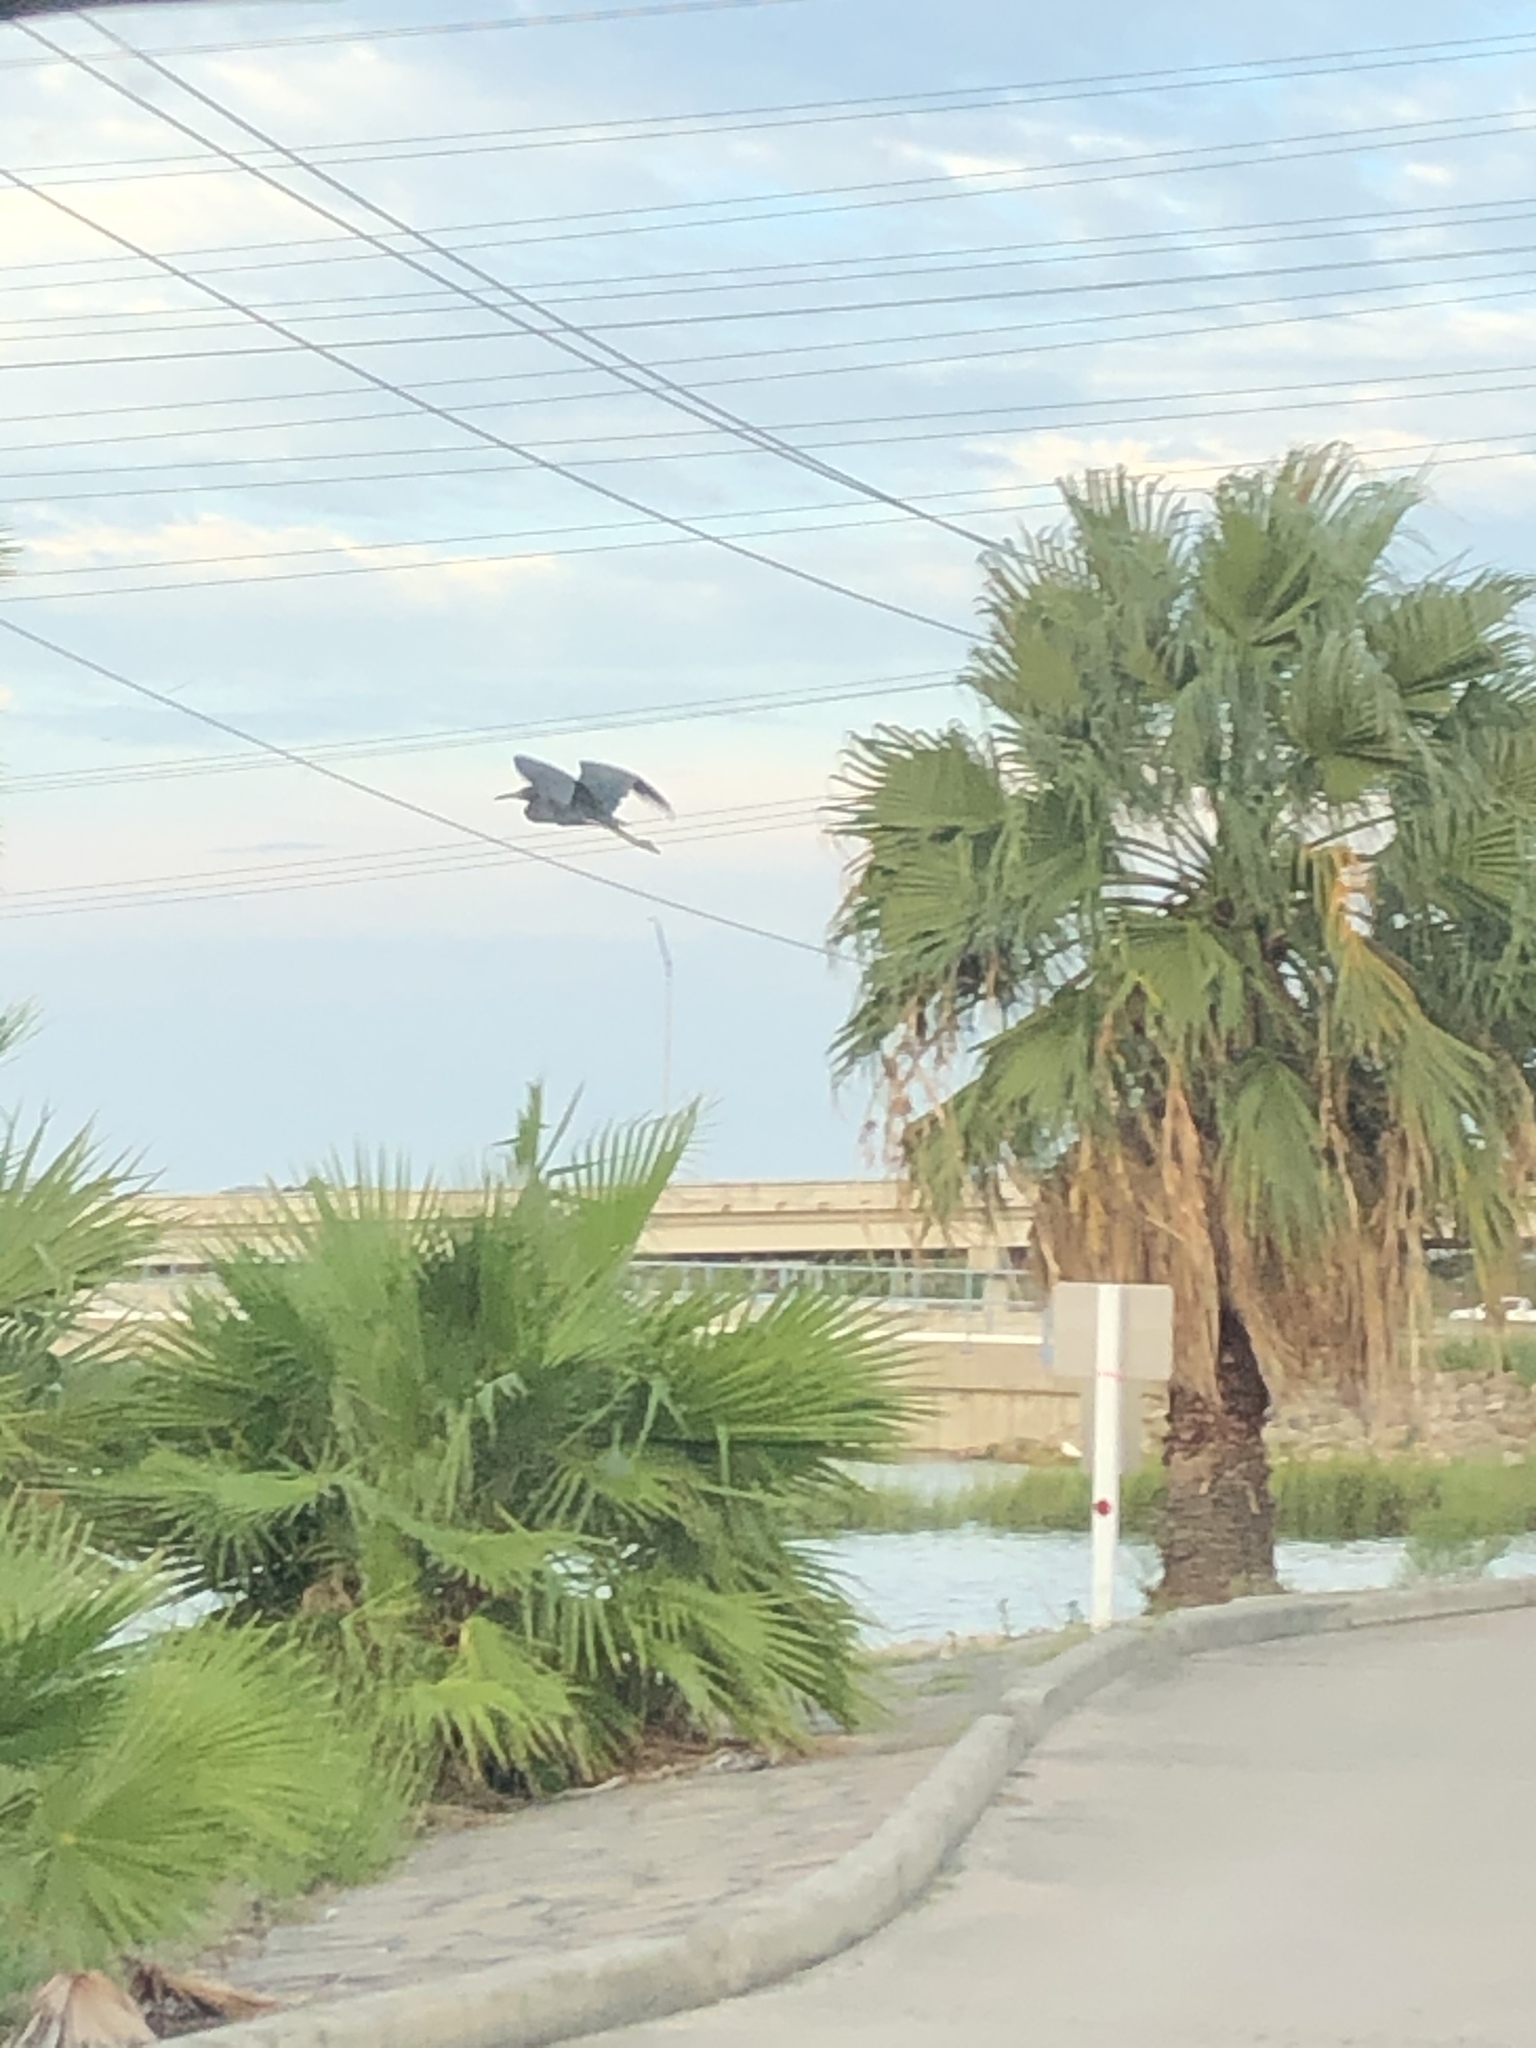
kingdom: Animalia
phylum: Chordata
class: Aves
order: Pelecaniformes
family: Ardeidae
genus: Egretta
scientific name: Egretta caerulea
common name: Little blue heron
